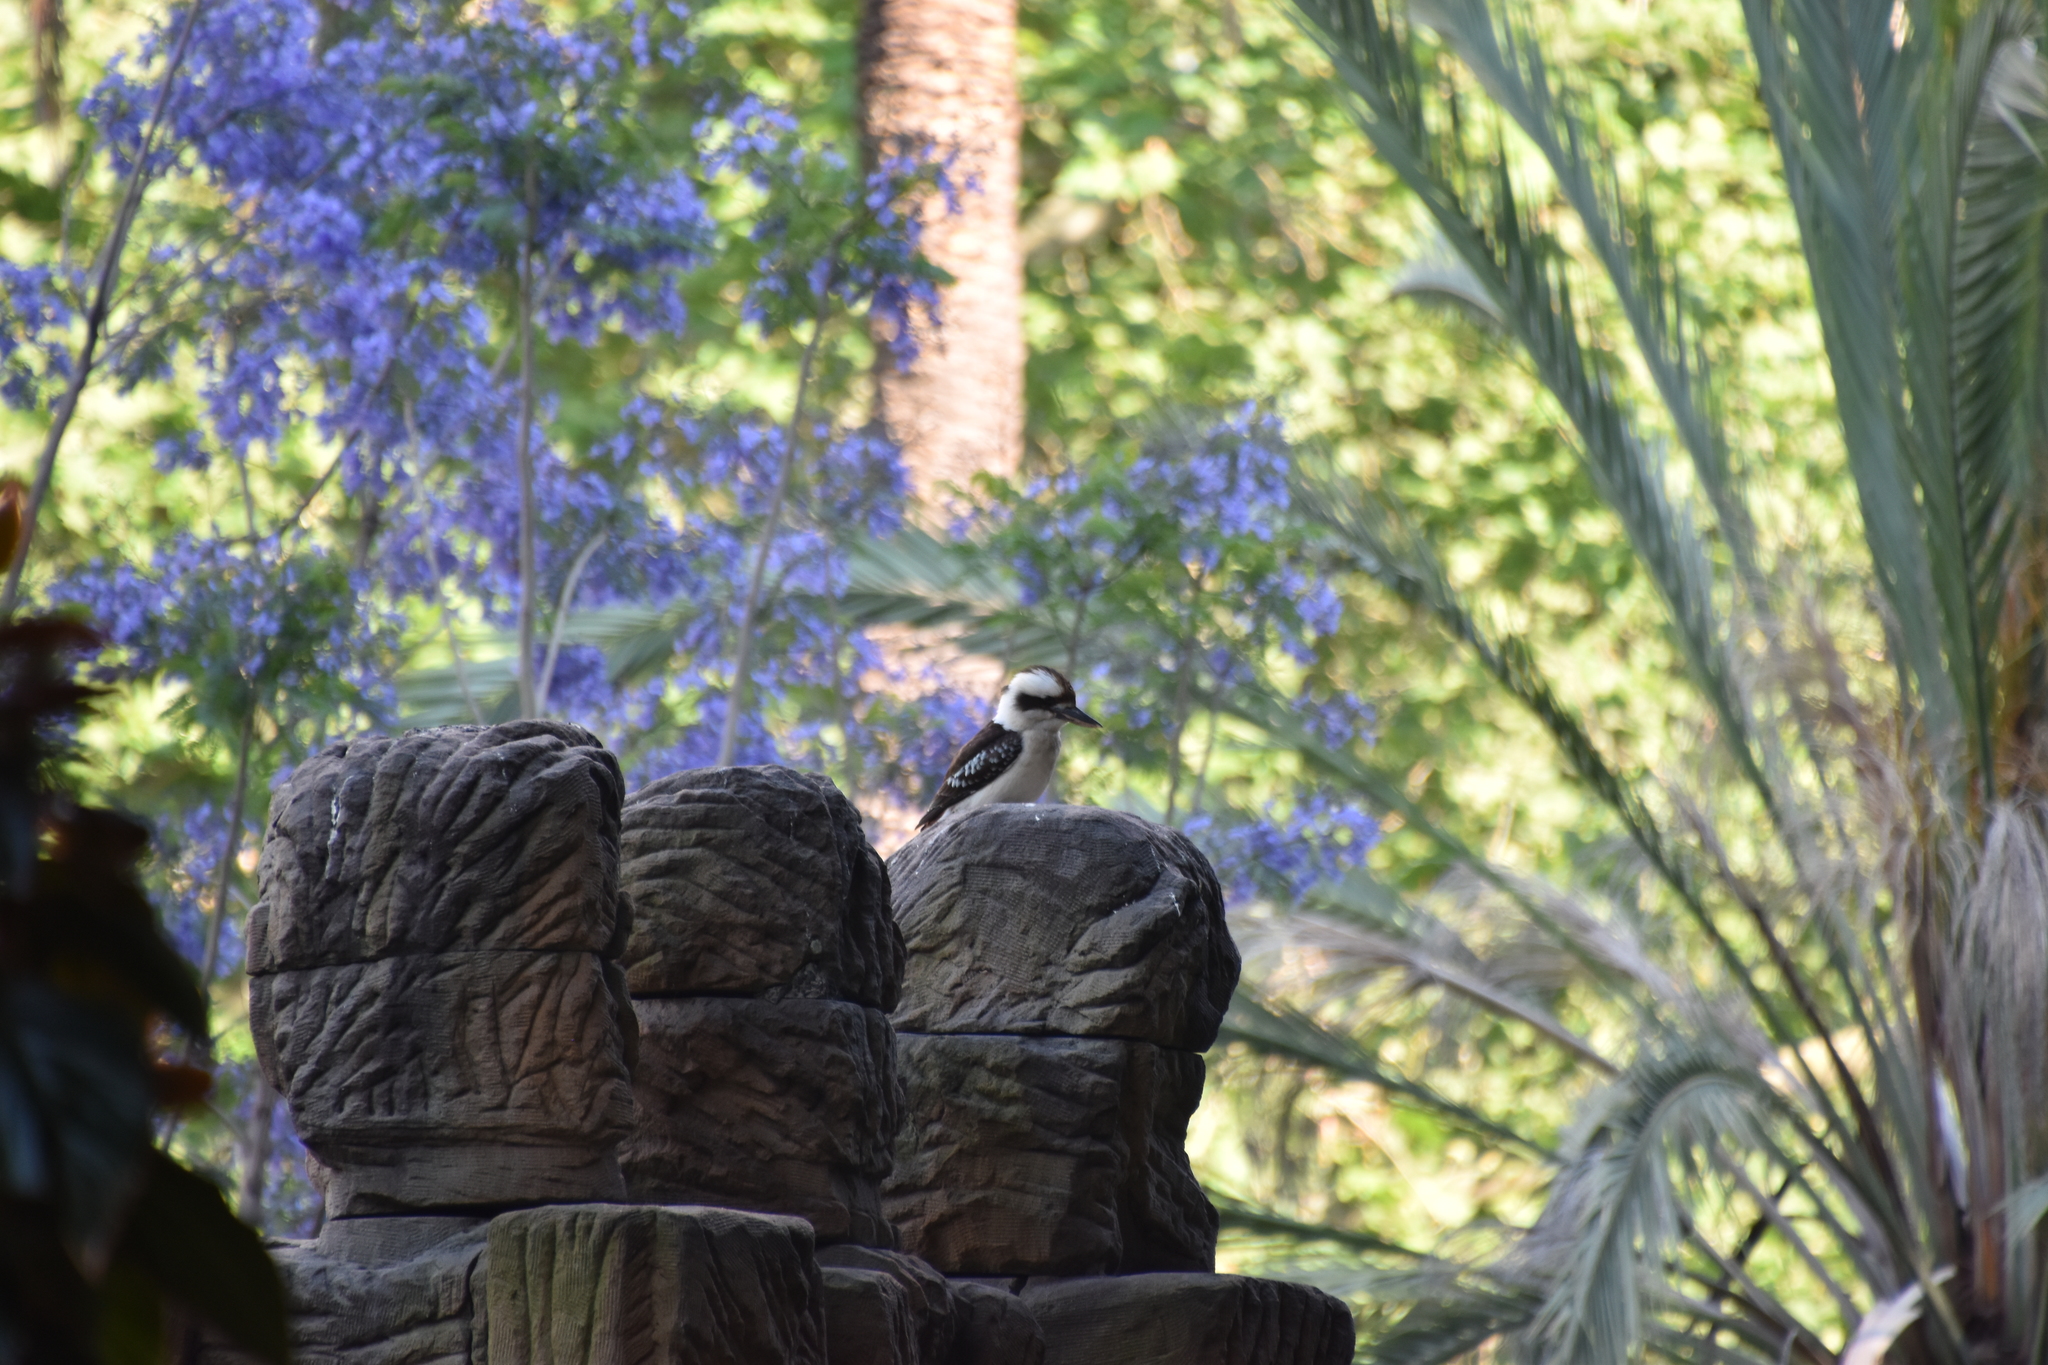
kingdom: Animalia
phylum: Chordata
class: Aves
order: Coraciiformes
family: Alcedinidae
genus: Dacelo
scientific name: Dacelo novaeguineae
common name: Laughing kookaburra
